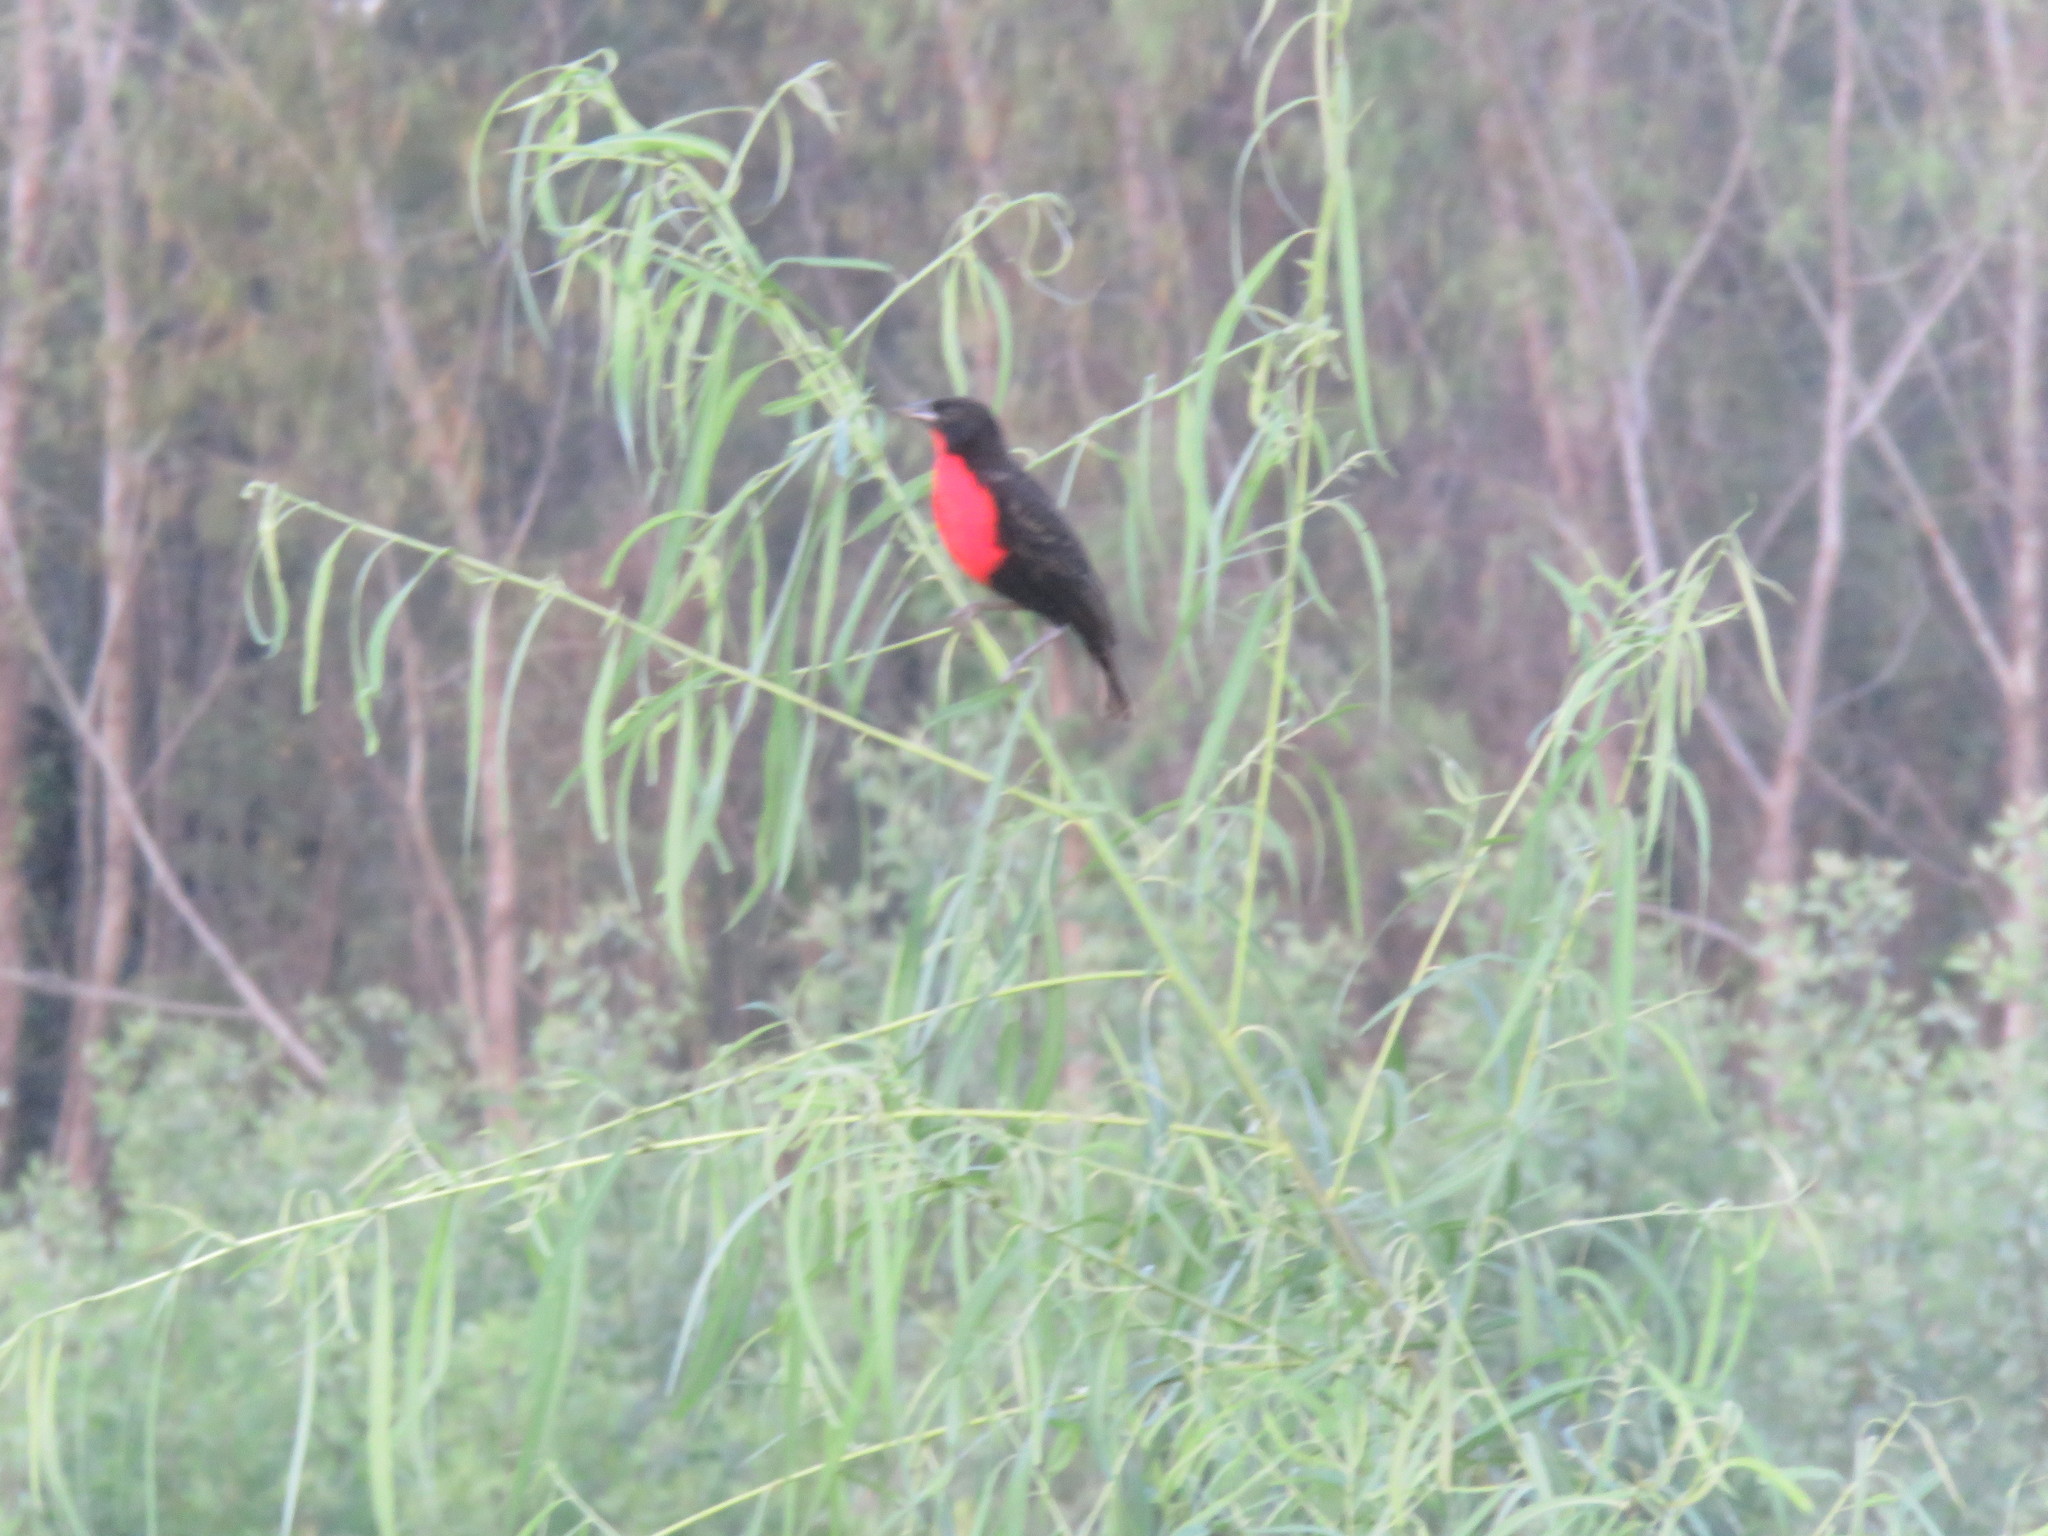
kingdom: Animalia
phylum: Chordata
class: Aves
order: Passeriformes
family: Icteridae
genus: Sturnella
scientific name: Sturnella militaris
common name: Red-breasted blackbird
